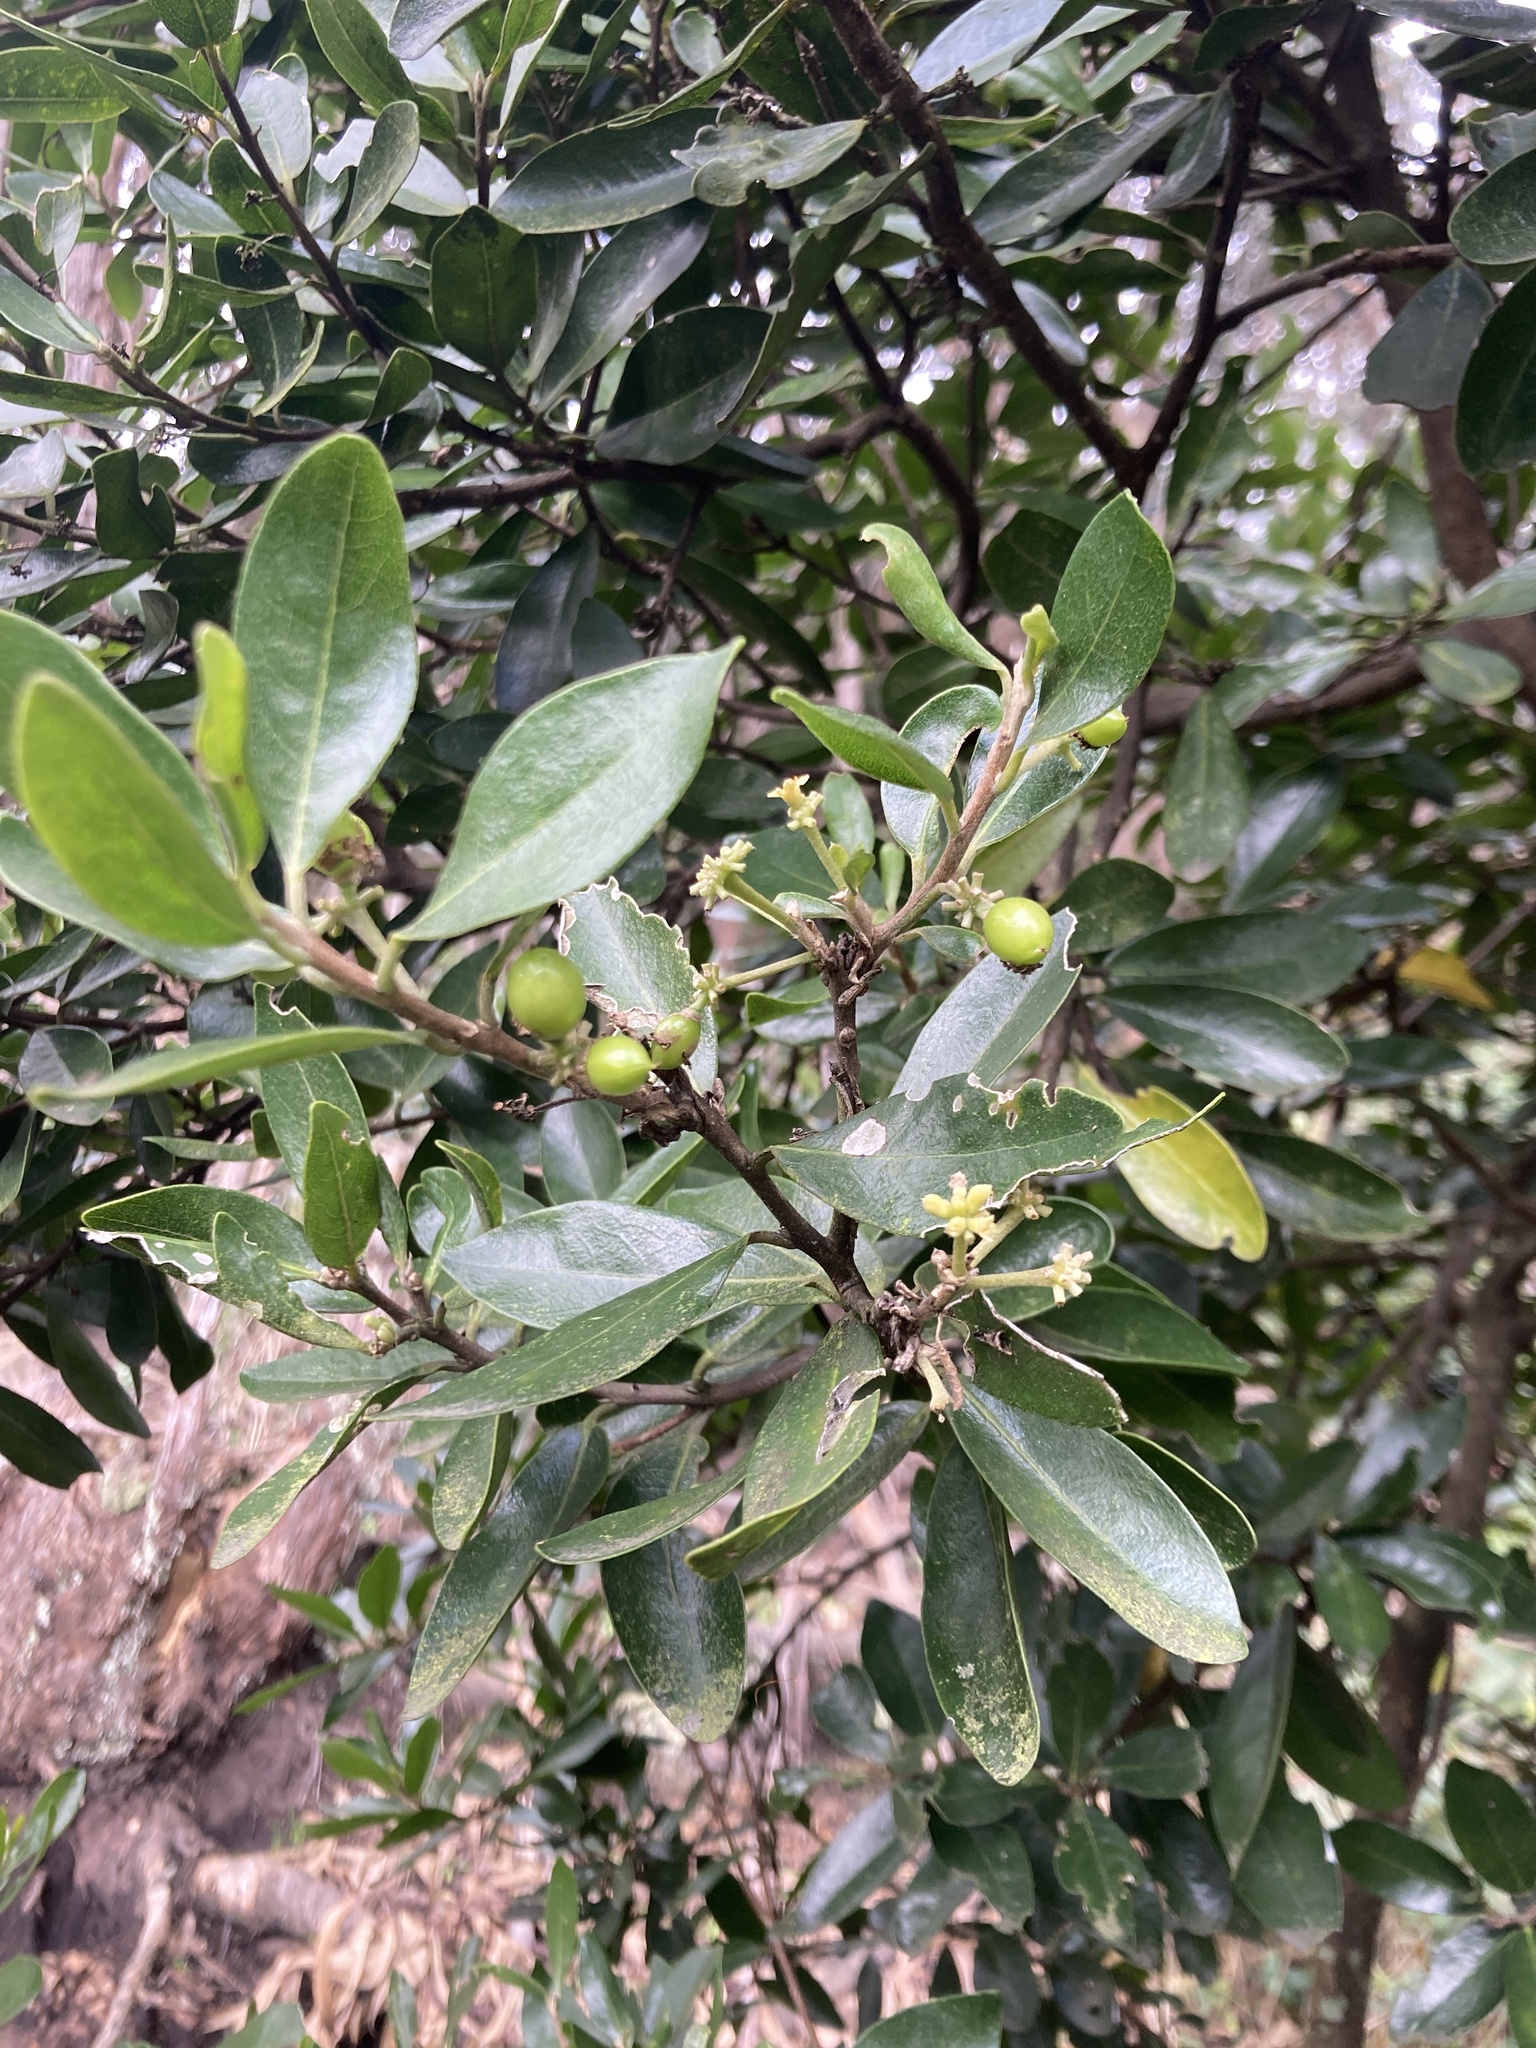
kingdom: Plantae
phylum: Tracheophyta
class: Magnoliopsida
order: Malvales
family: Thymelaeaceae
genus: Daphnopsis
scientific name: Daphnopsis caracasana
